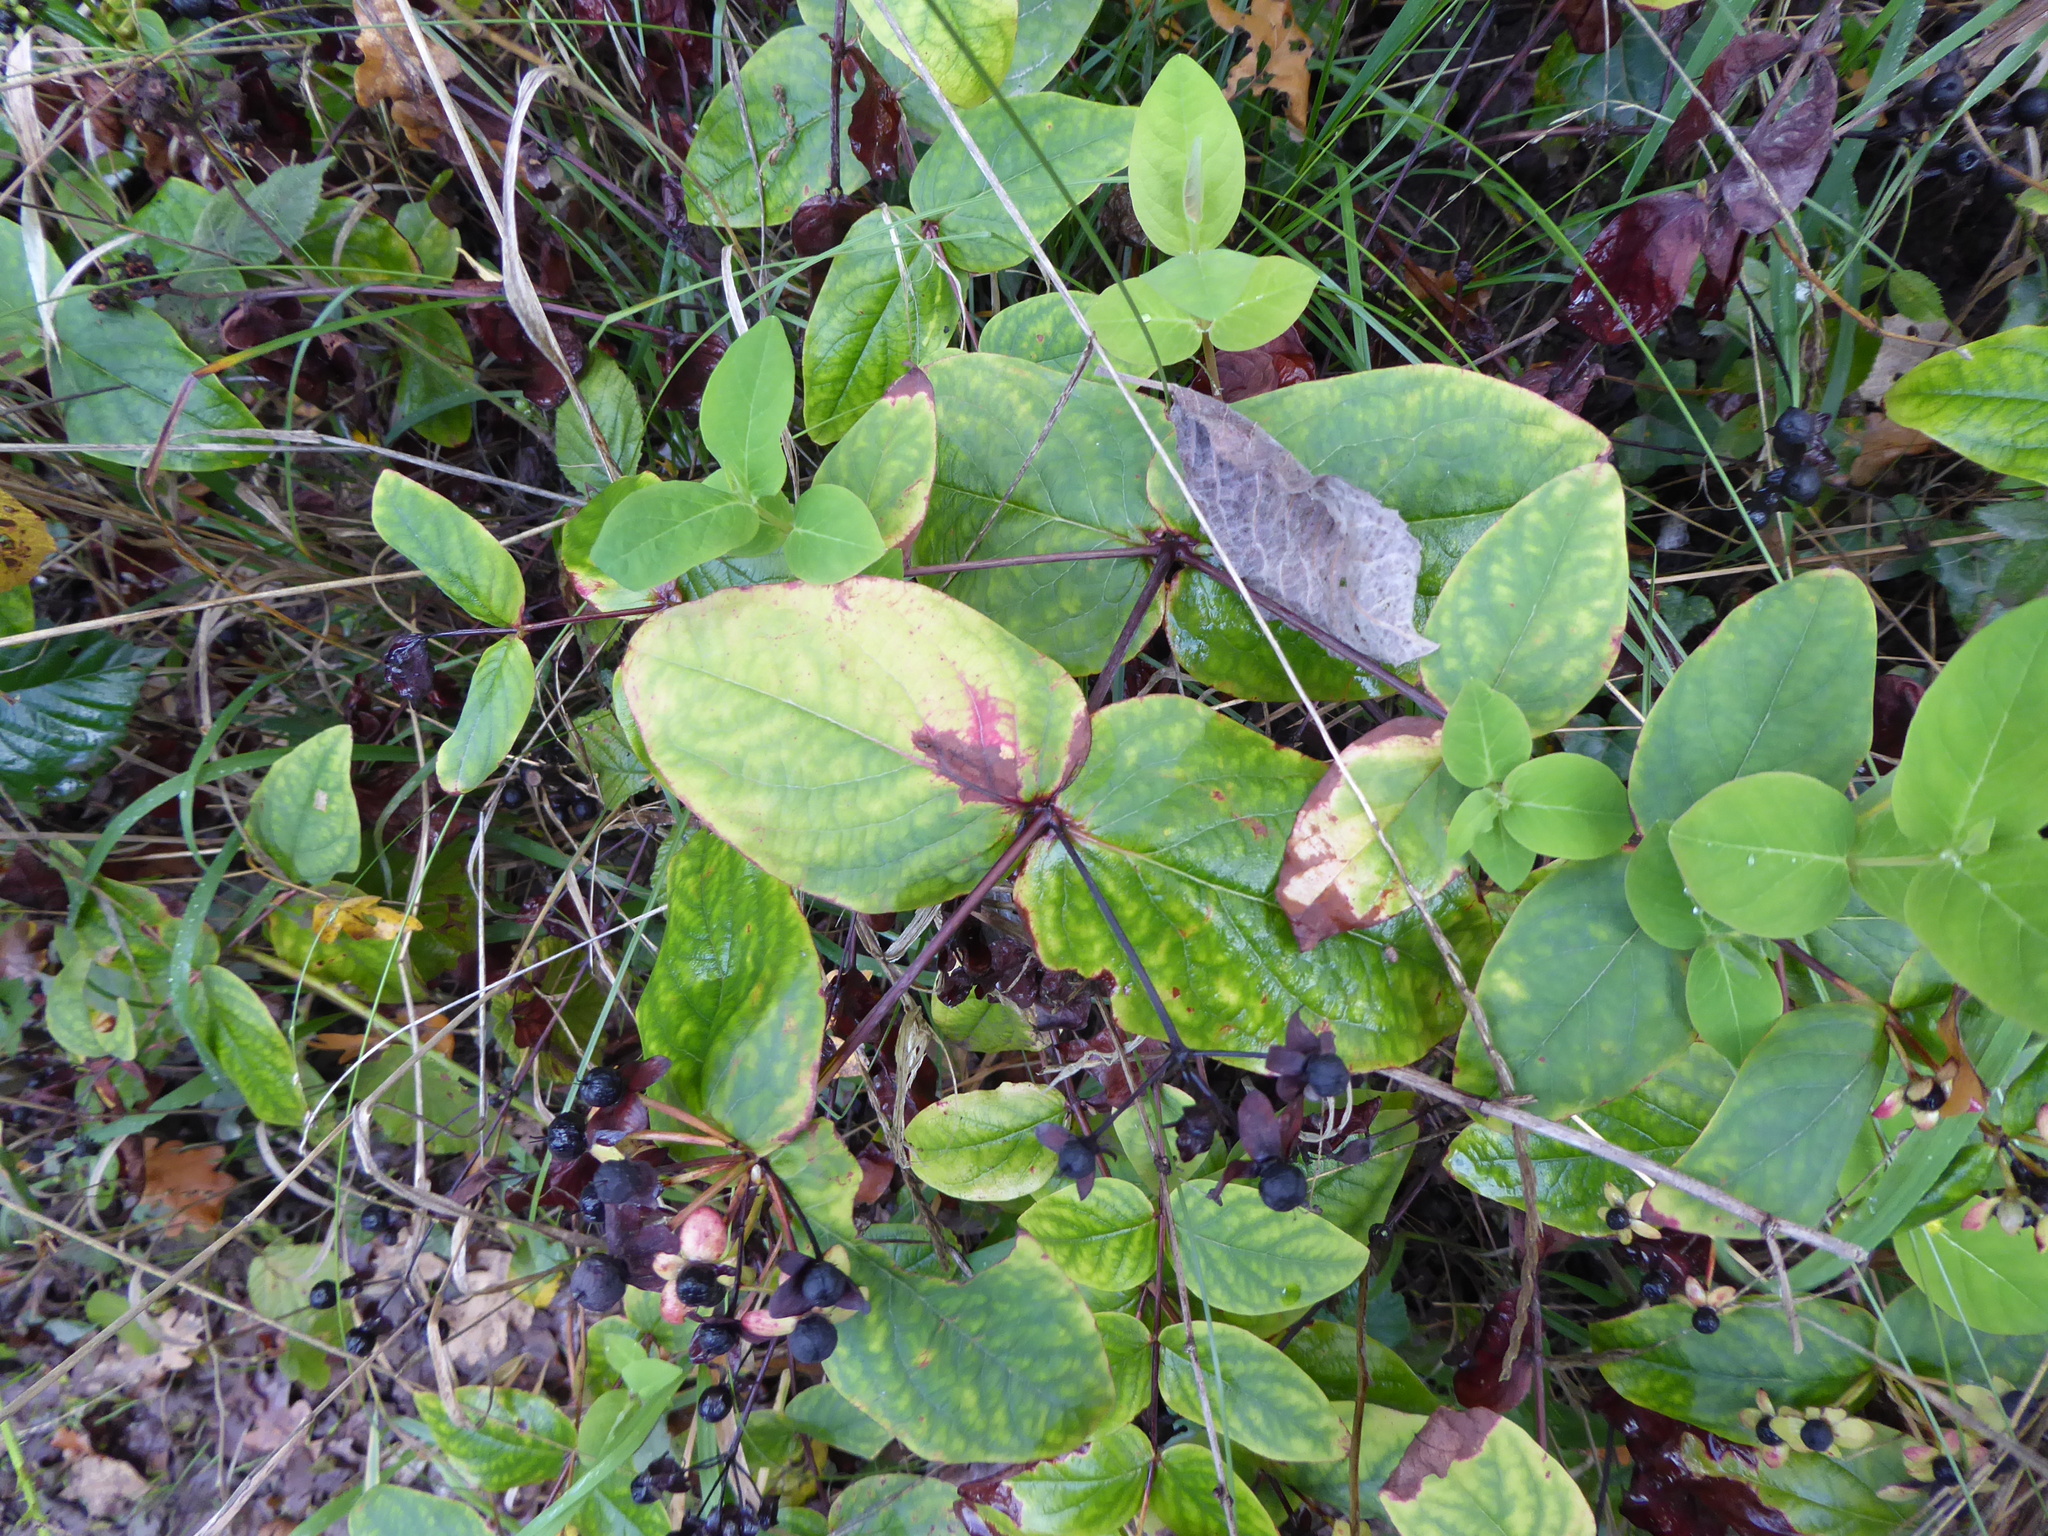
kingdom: Plantae
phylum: Tracheophyta
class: Magnoliopsida
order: Malpighiales
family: Hypericaceae
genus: Hypericum
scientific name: Hypericum androsaemum
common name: Sweet-amber
